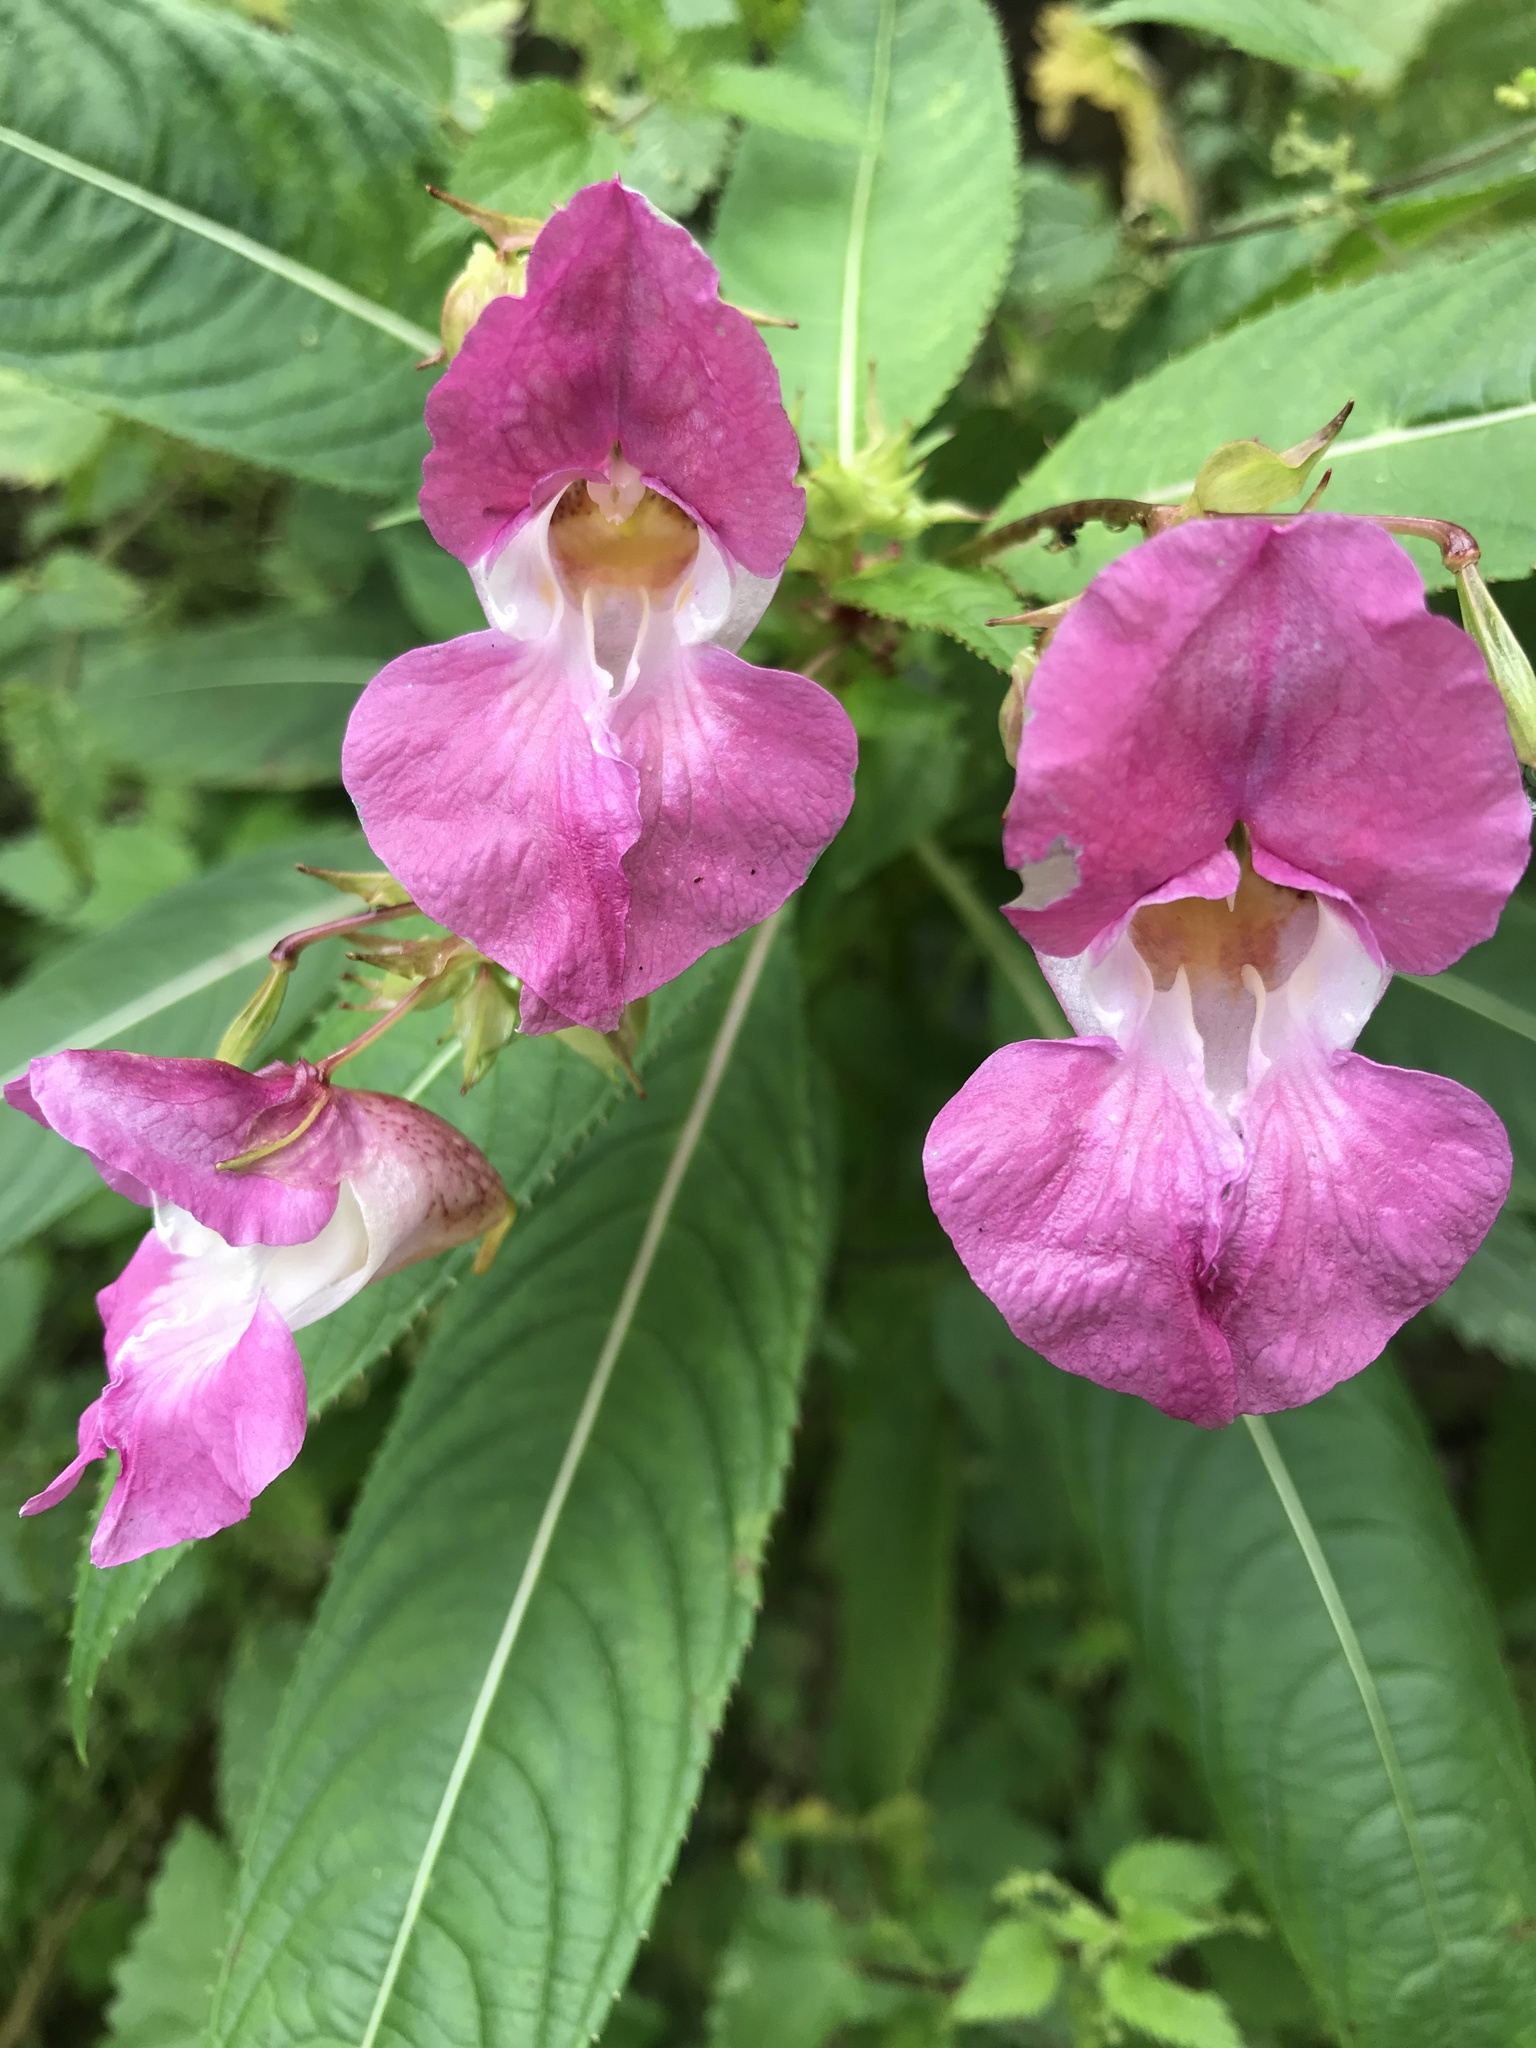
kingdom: Plantae
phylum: Tracheophyta
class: Magnoliopsida
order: Ericales
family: Balsaminaceae
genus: Impatiens
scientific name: Impatiens glandulifera
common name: Himalayan balsam
